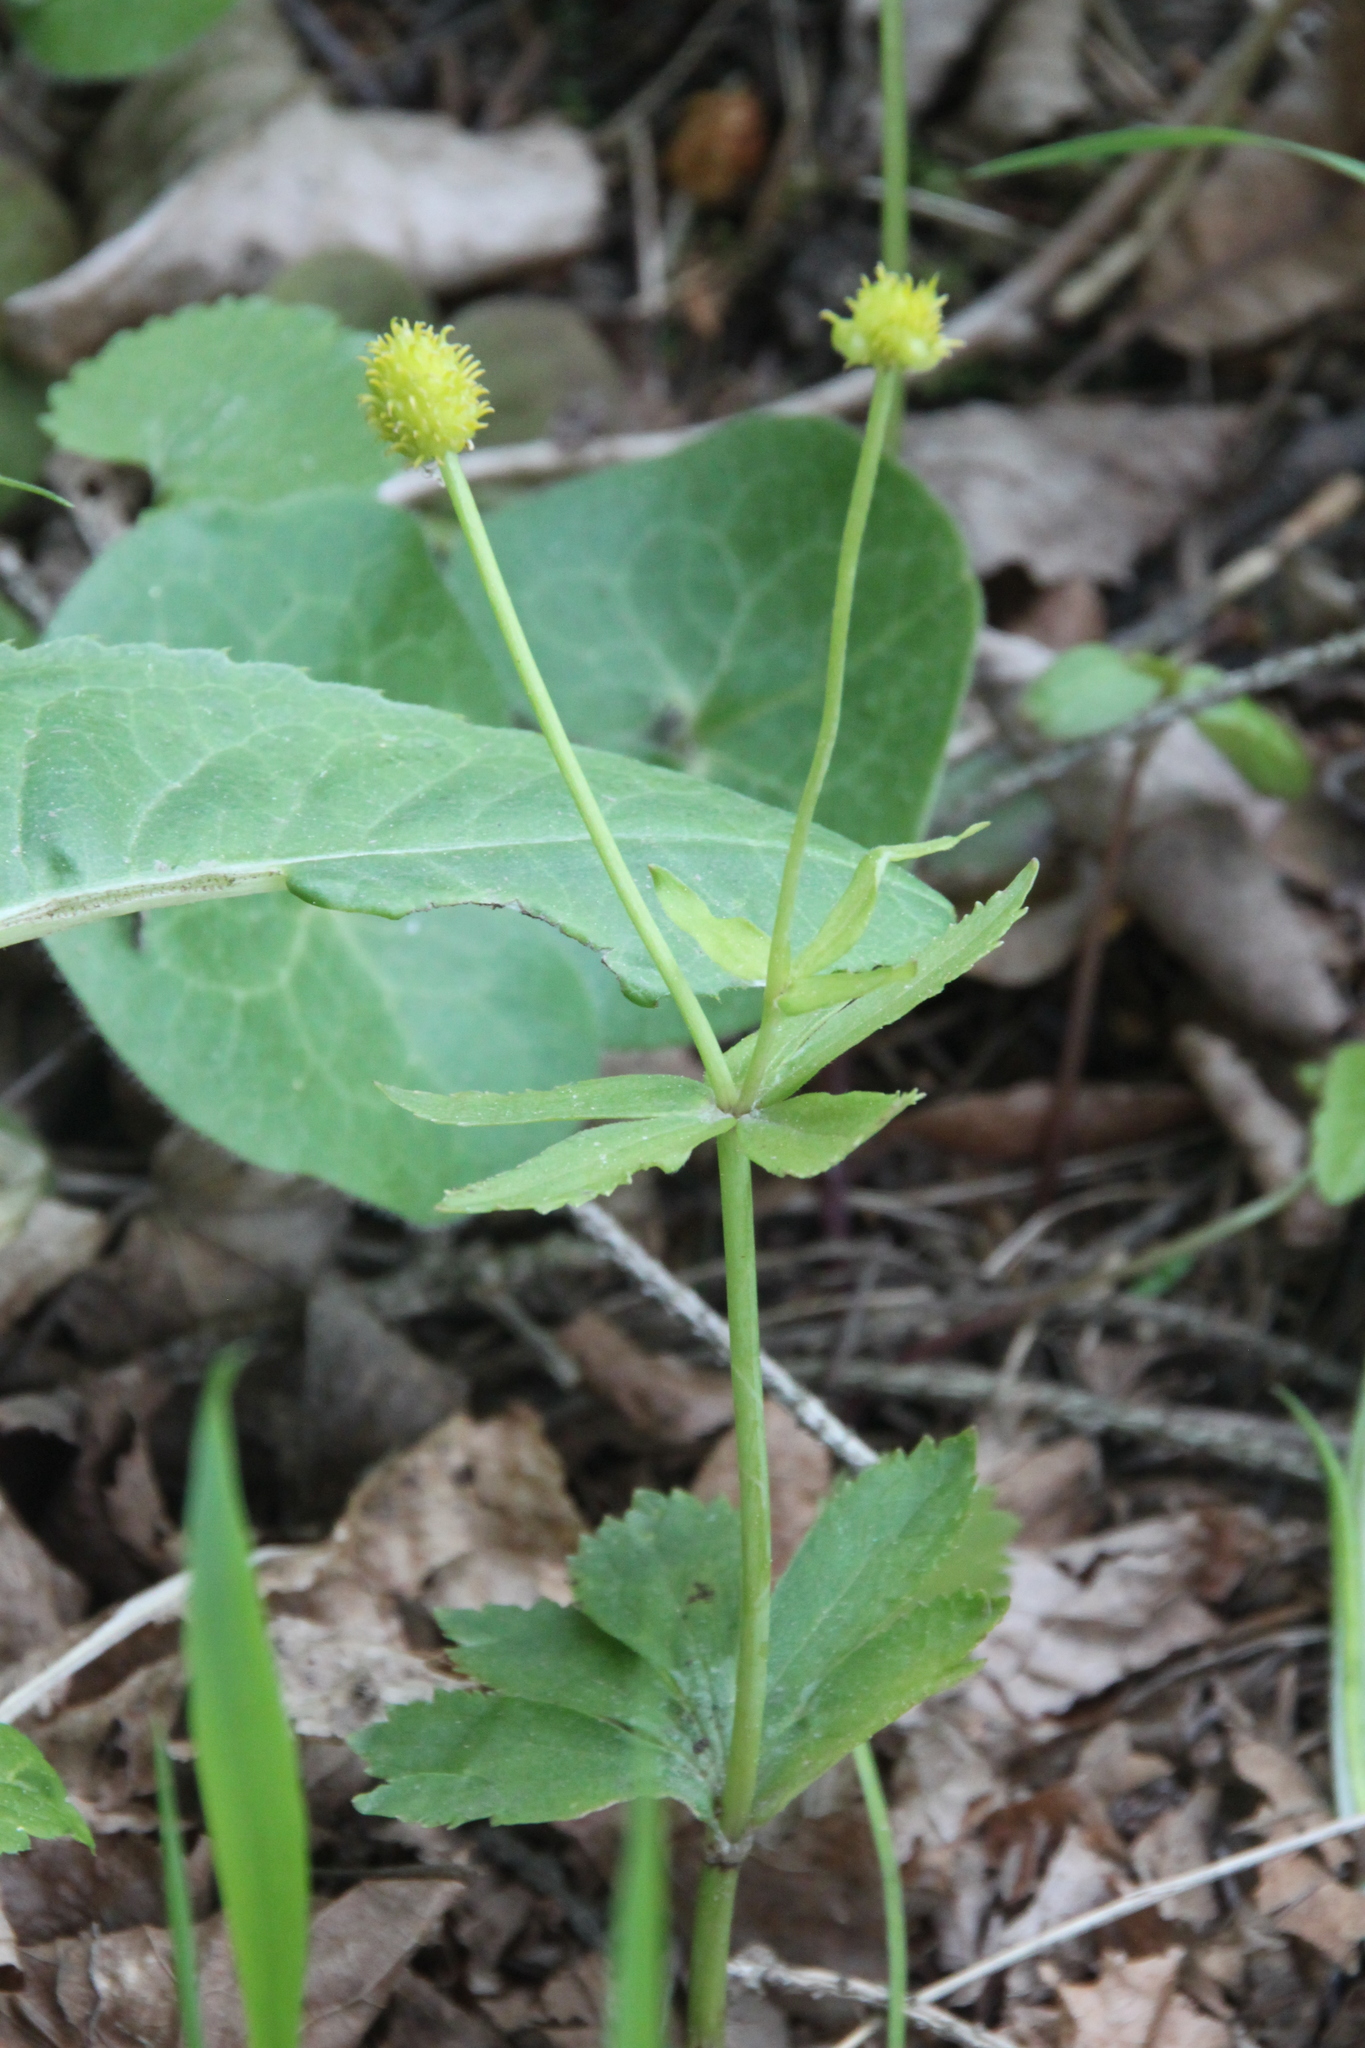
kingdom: Plantae
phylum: Tracheophyta
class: Magnoliopsida
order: Ranunculales
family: Ranunculaceae
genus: Ranunculus
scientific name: Ranunculus cassubicus
